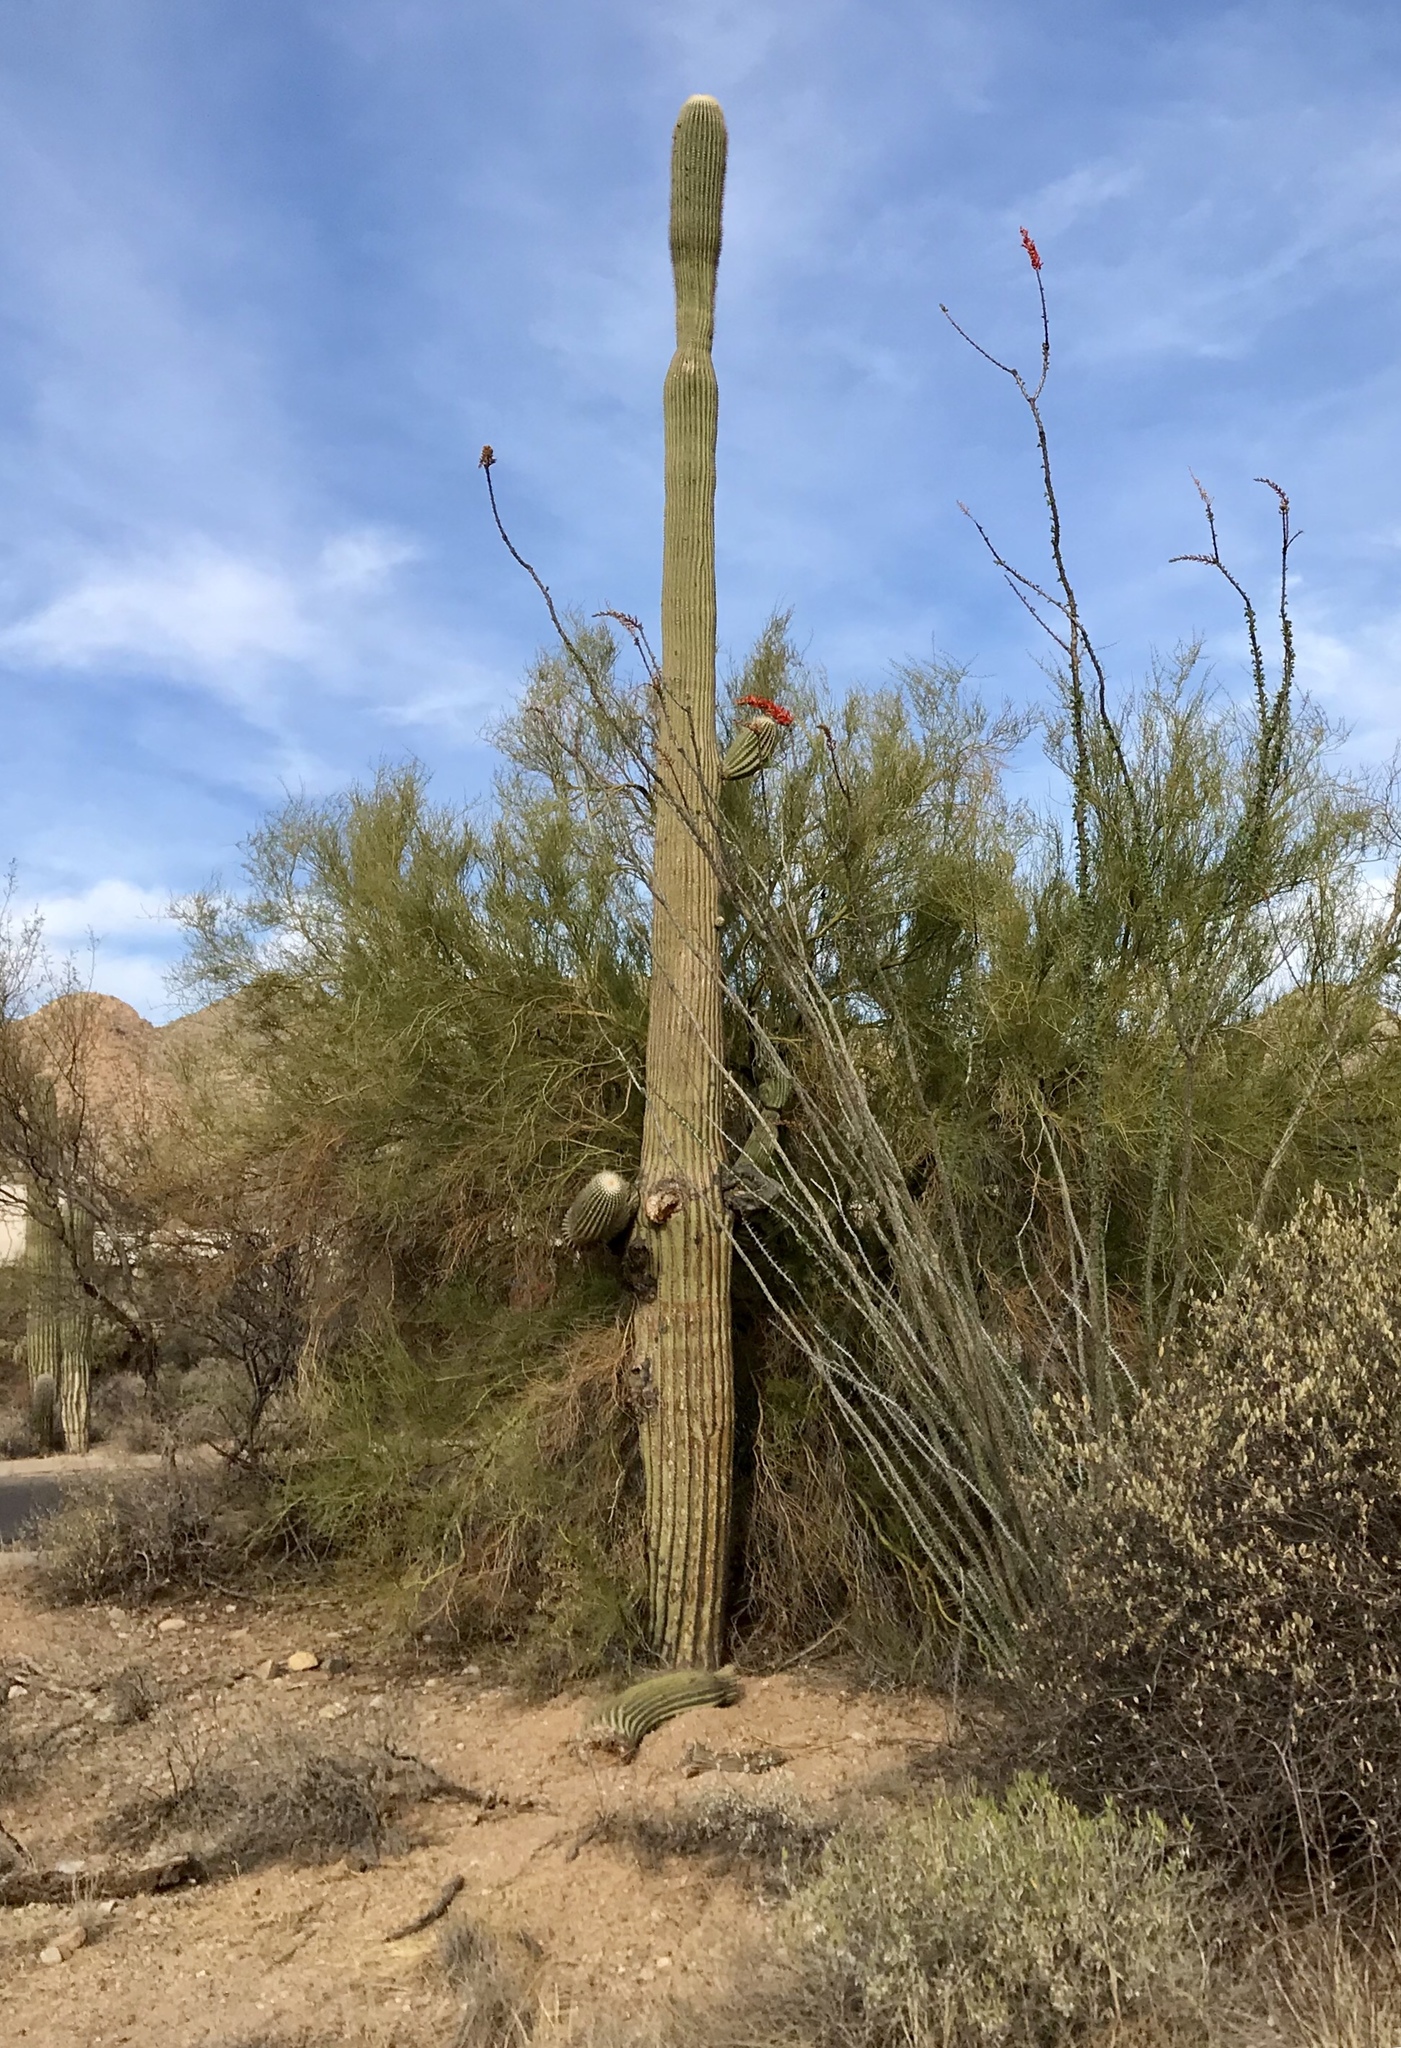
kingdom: Plantae
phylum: Tracheophyta
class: Magnoliopsida
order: Caryophyllales
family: Cactaceae
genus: Carnegiea
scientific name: Carnegiea gigantea
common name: Saguaro
